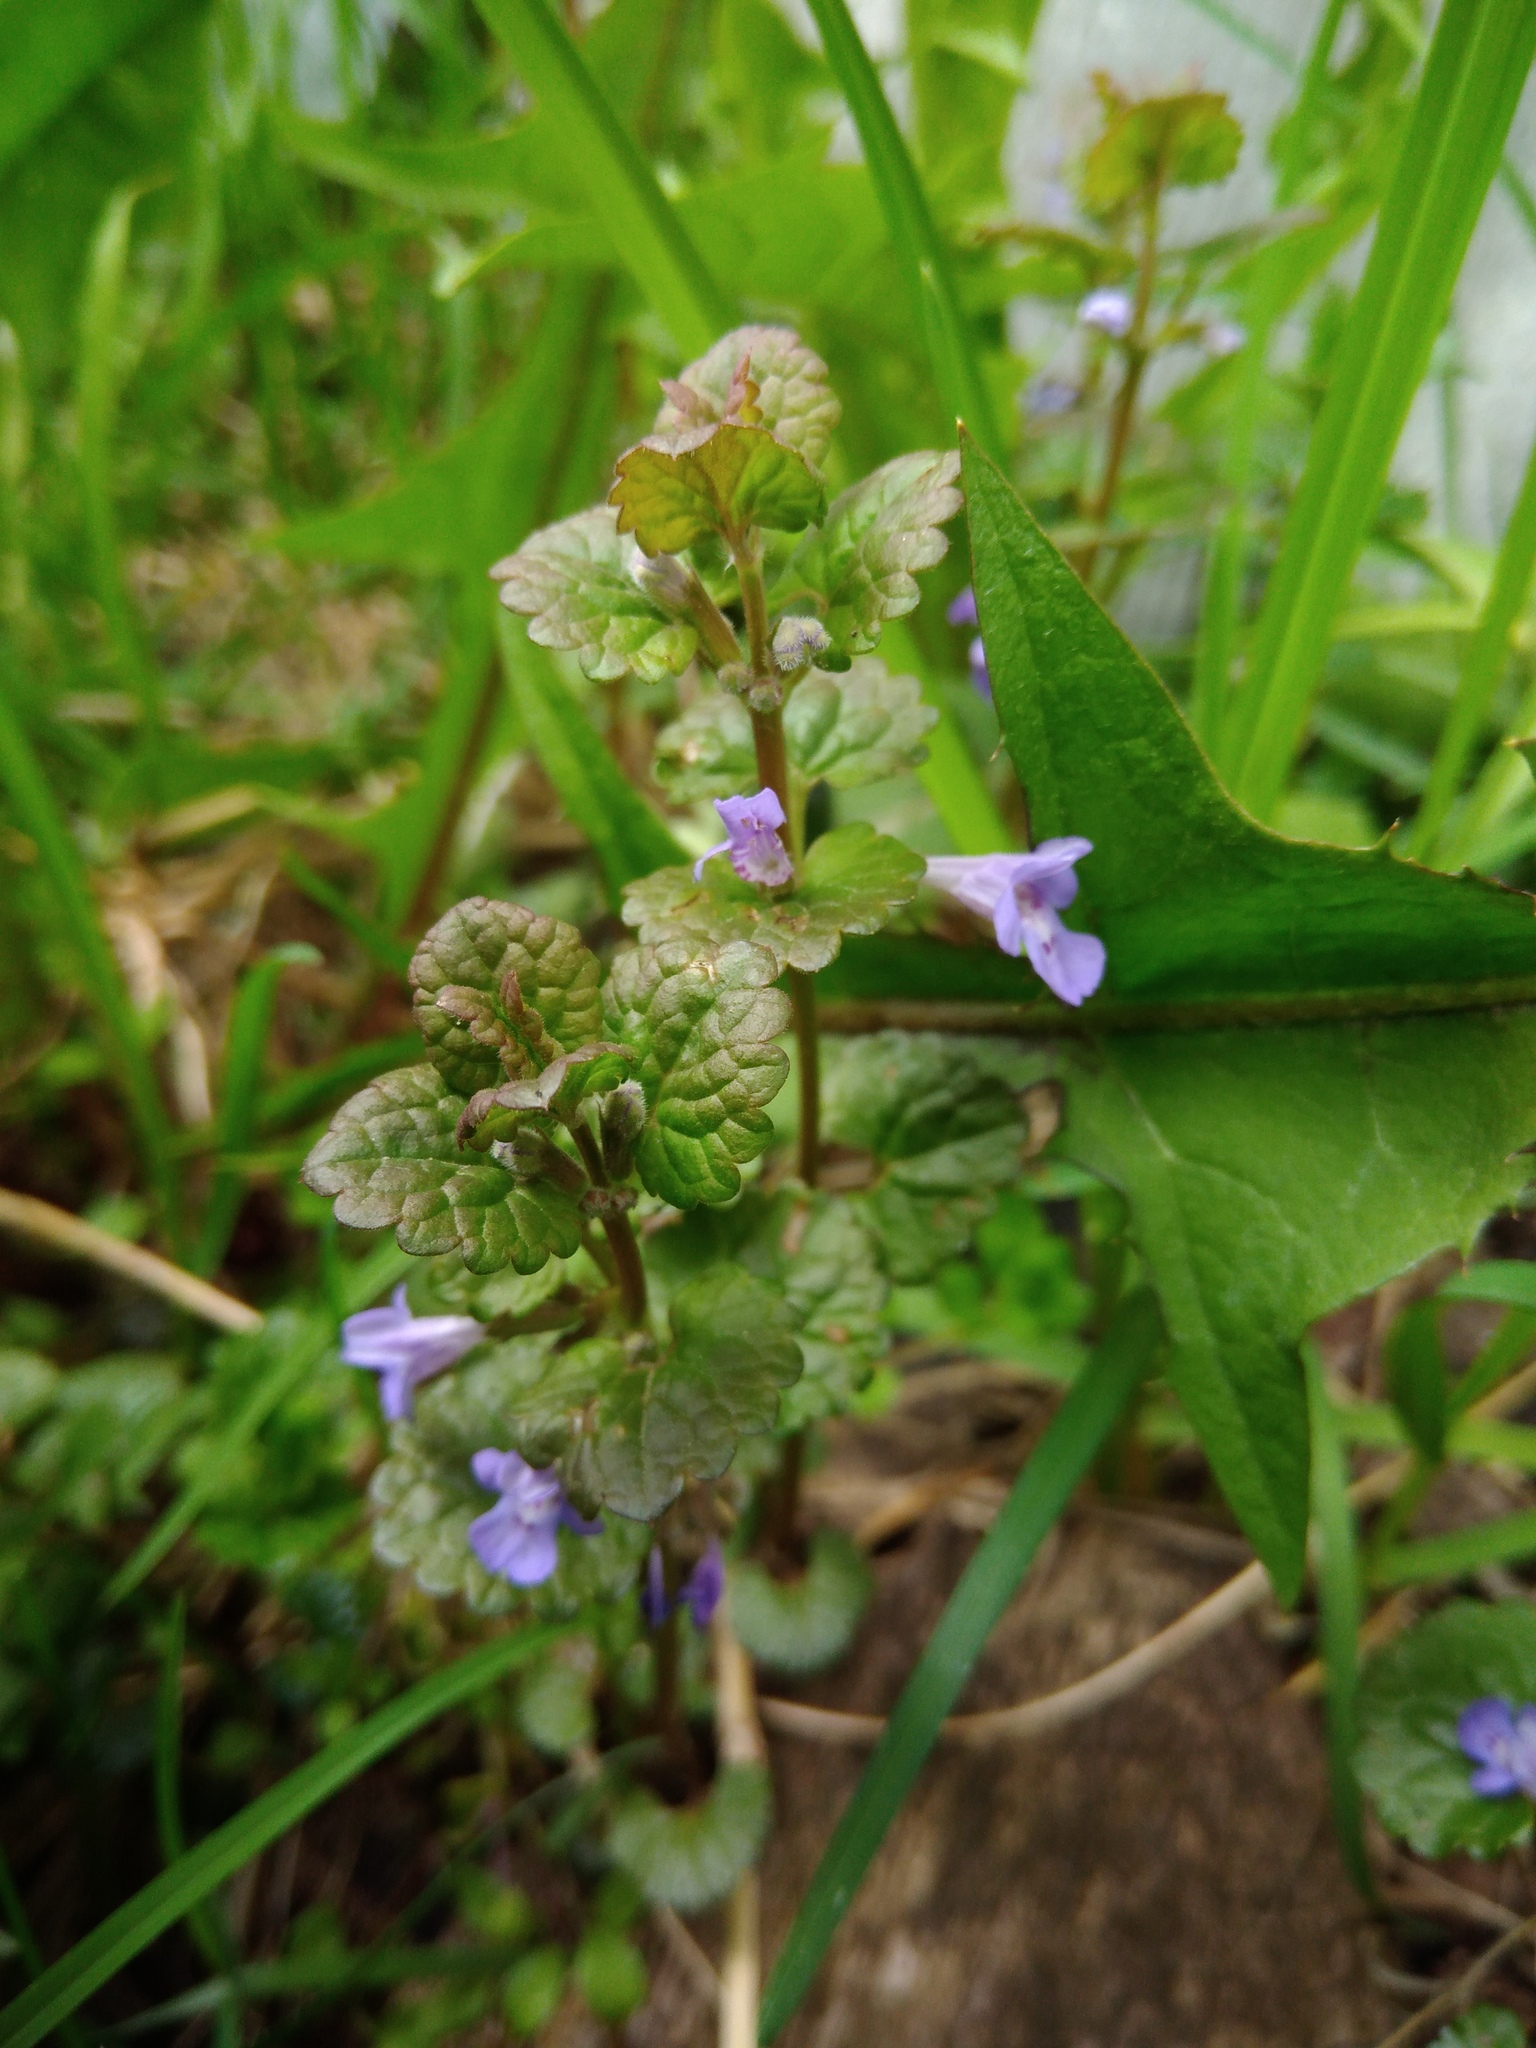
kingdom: Plantae
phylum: Tracheophyta
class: Magnoliopsida
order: Lamiales
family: Lamiaceae
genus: Glechoma
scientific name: Glechoma hederacea
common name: Ground ivy
